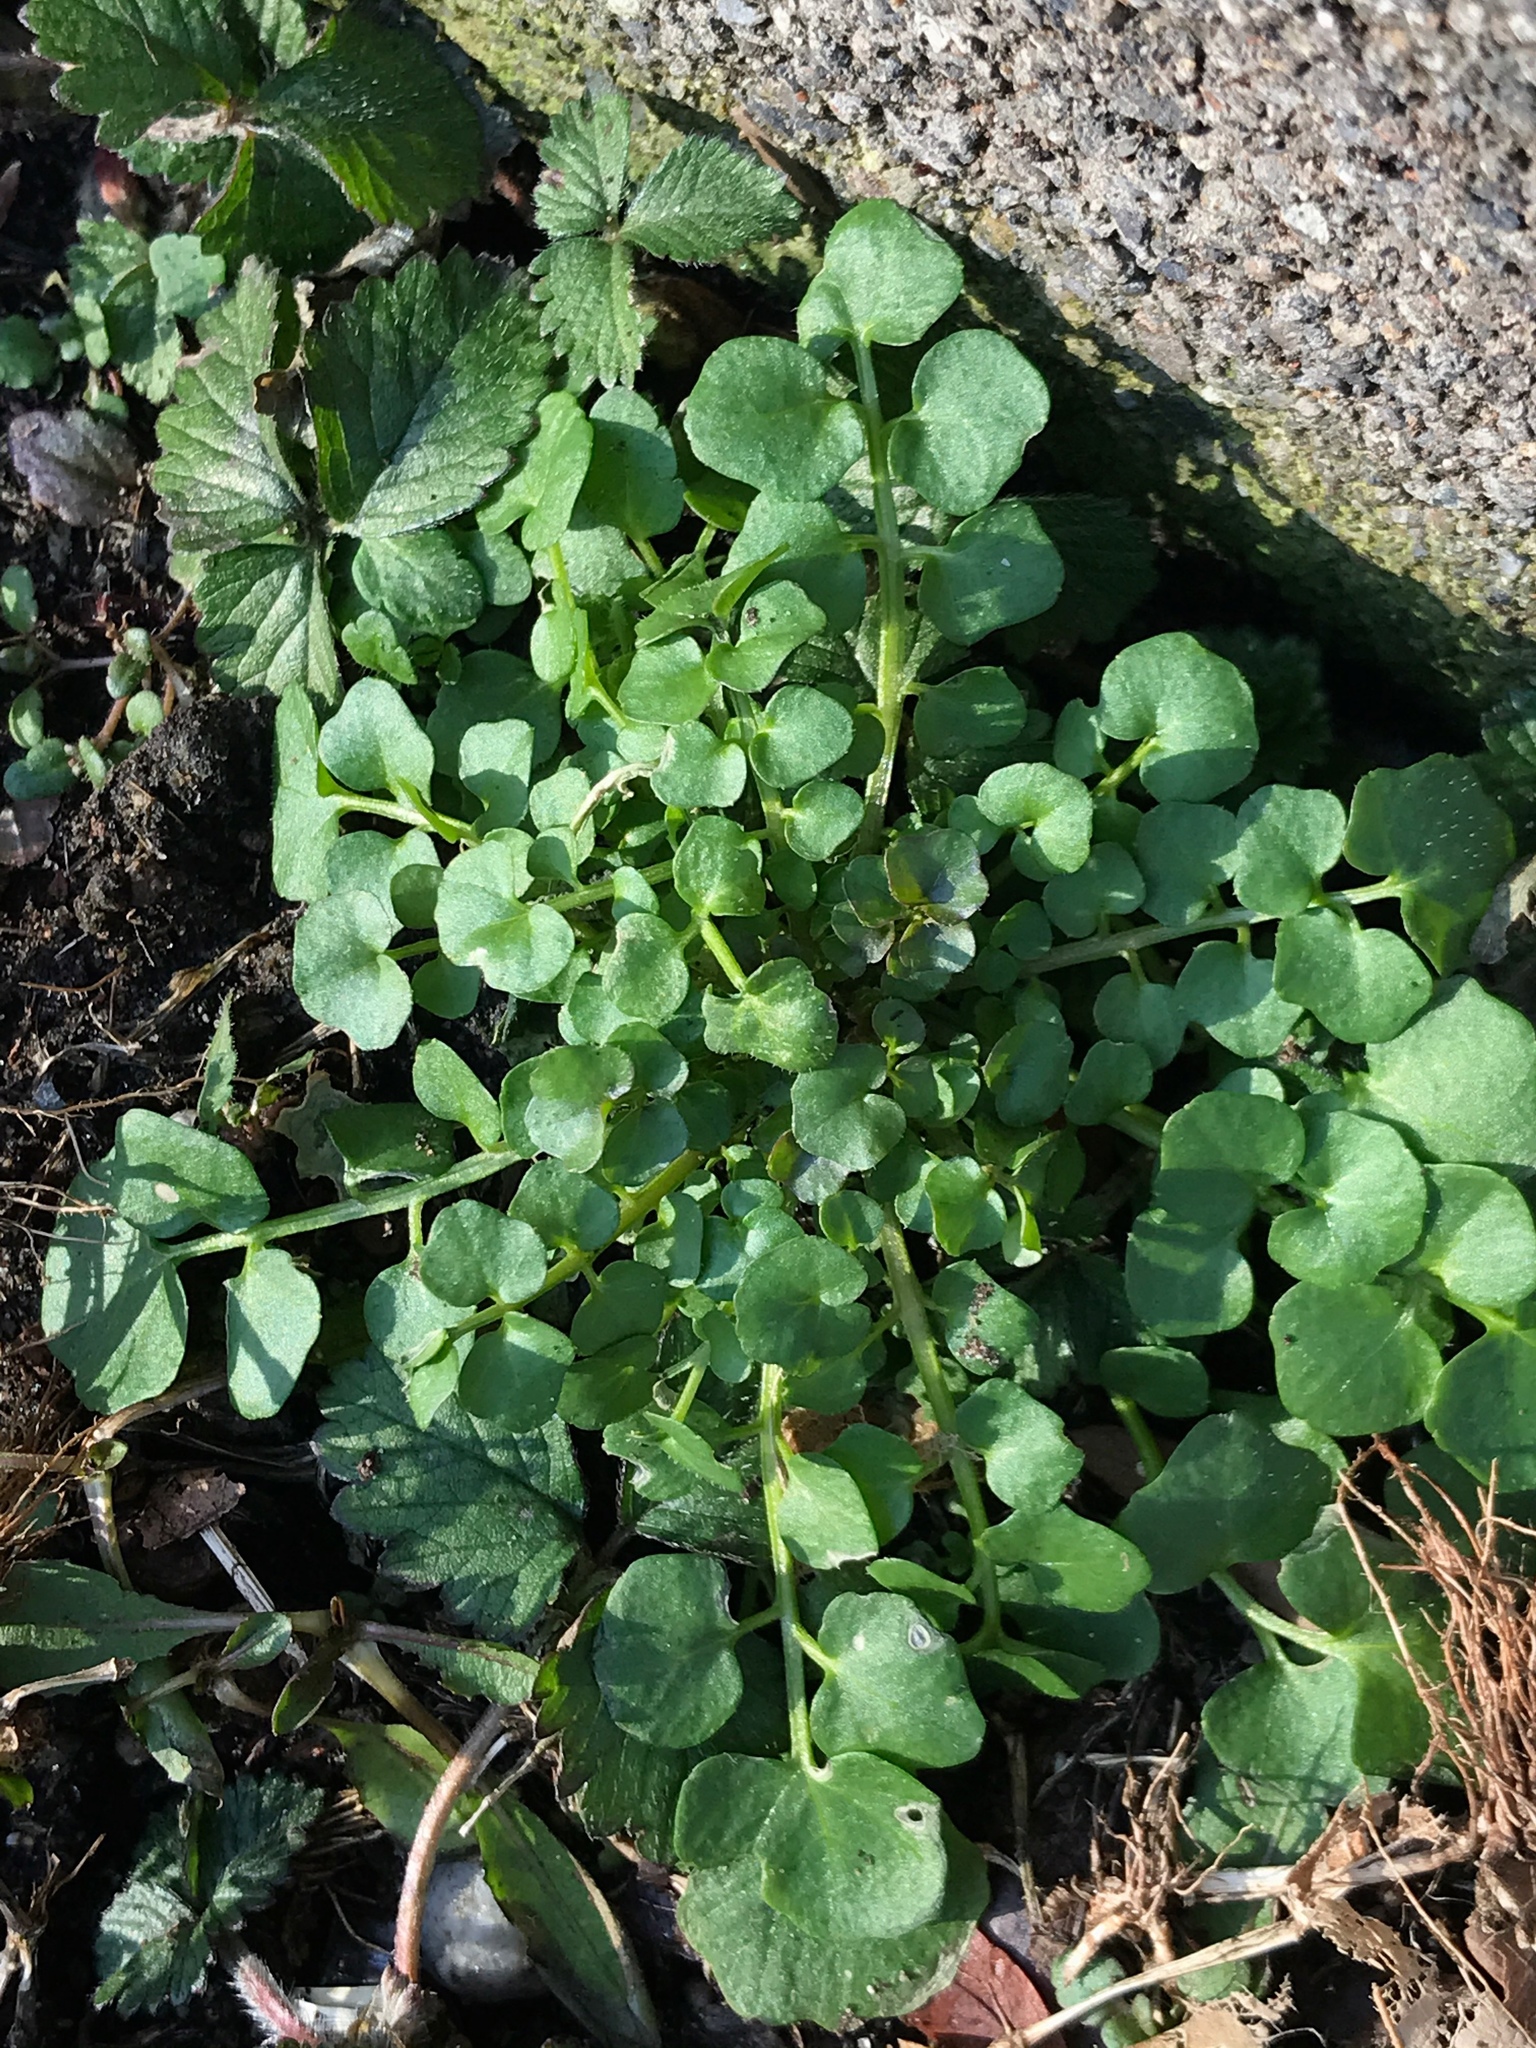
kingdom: Plantae
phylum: Tracheophyta
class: Magnoliopsida
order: Brassicales
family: Brassicaceae
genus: Cardamine
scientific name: Cardamine hirsuta
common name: Hairy bittercress
